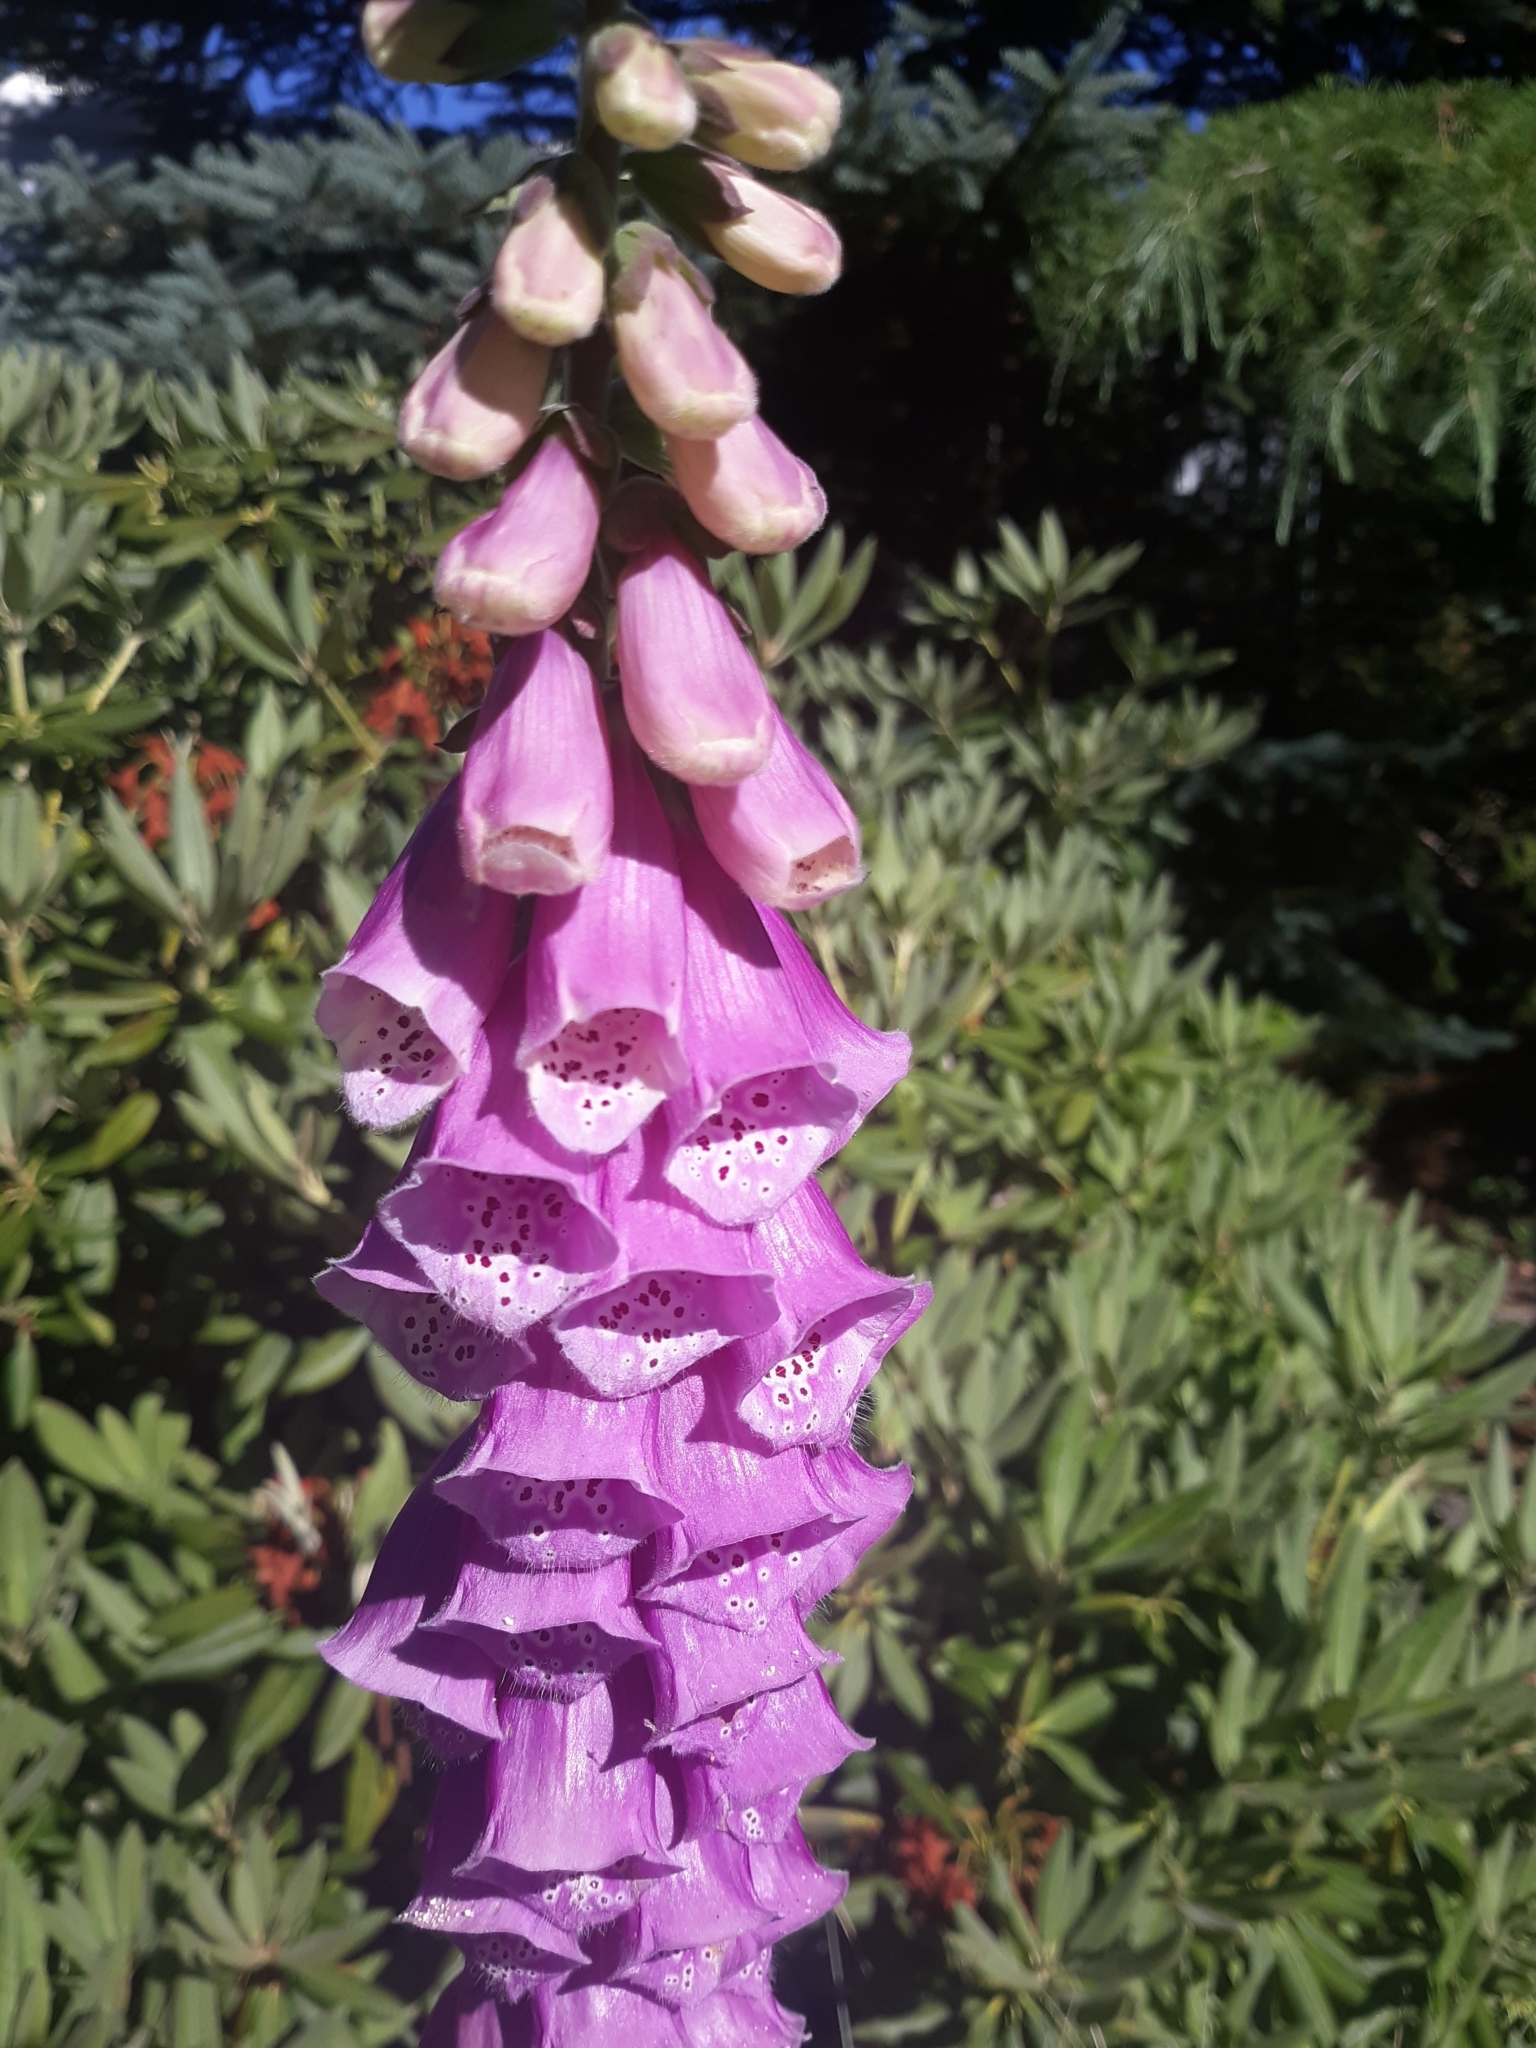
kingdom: Plantae
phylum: Tracheophyta
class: Magnoliopsida
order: Lamiales
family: Plantaginaceae
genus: Digitalis
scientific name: Digitalis purpurea
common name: Foxglove
